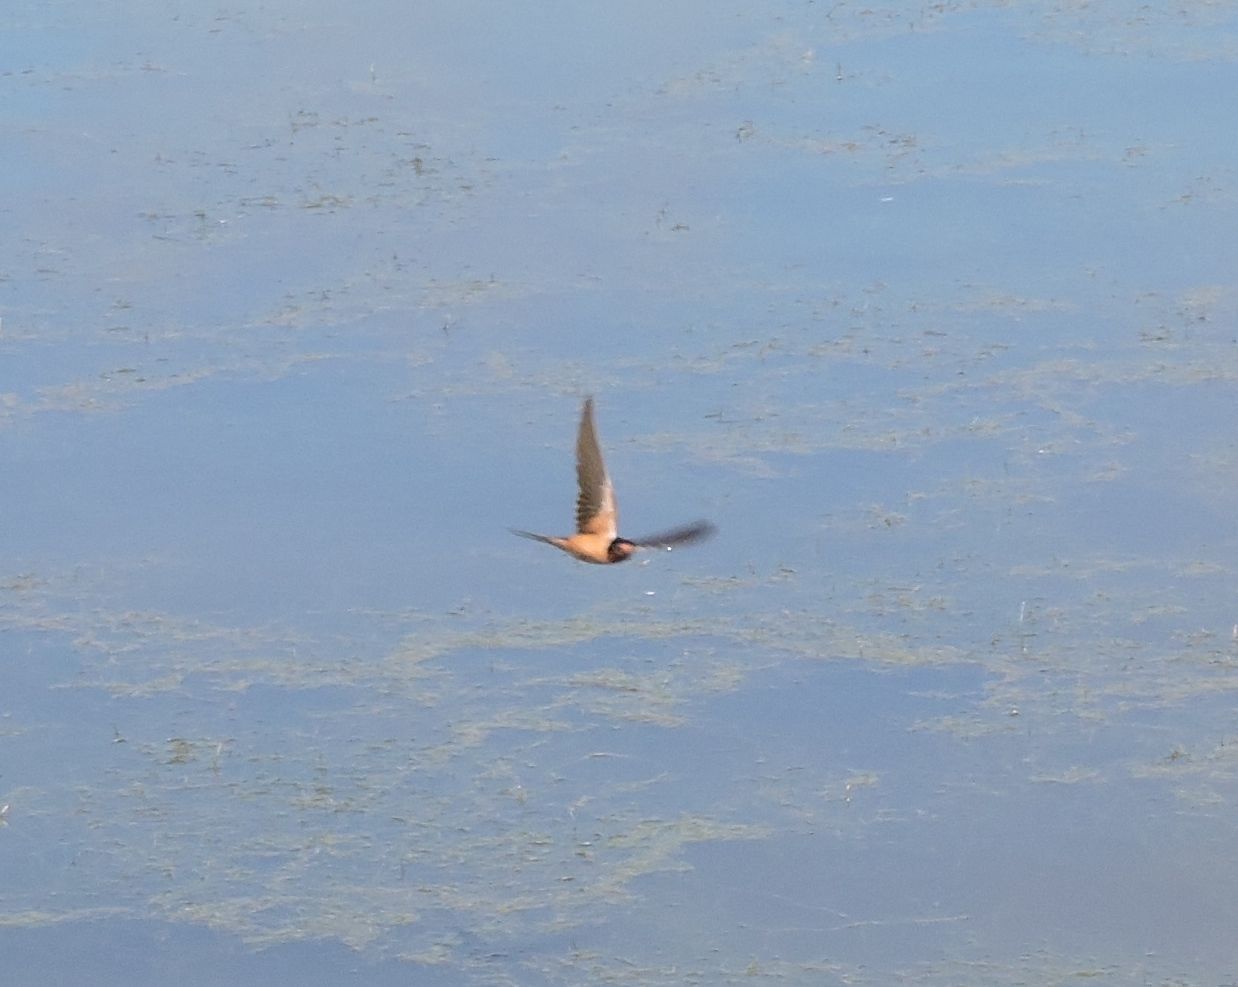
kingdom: Animalia
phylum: Chordata
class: Aves
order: Passeriformes
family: Hirundinidae
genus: Hirundo
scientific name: Hirundo rustica
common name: Barn swallow
